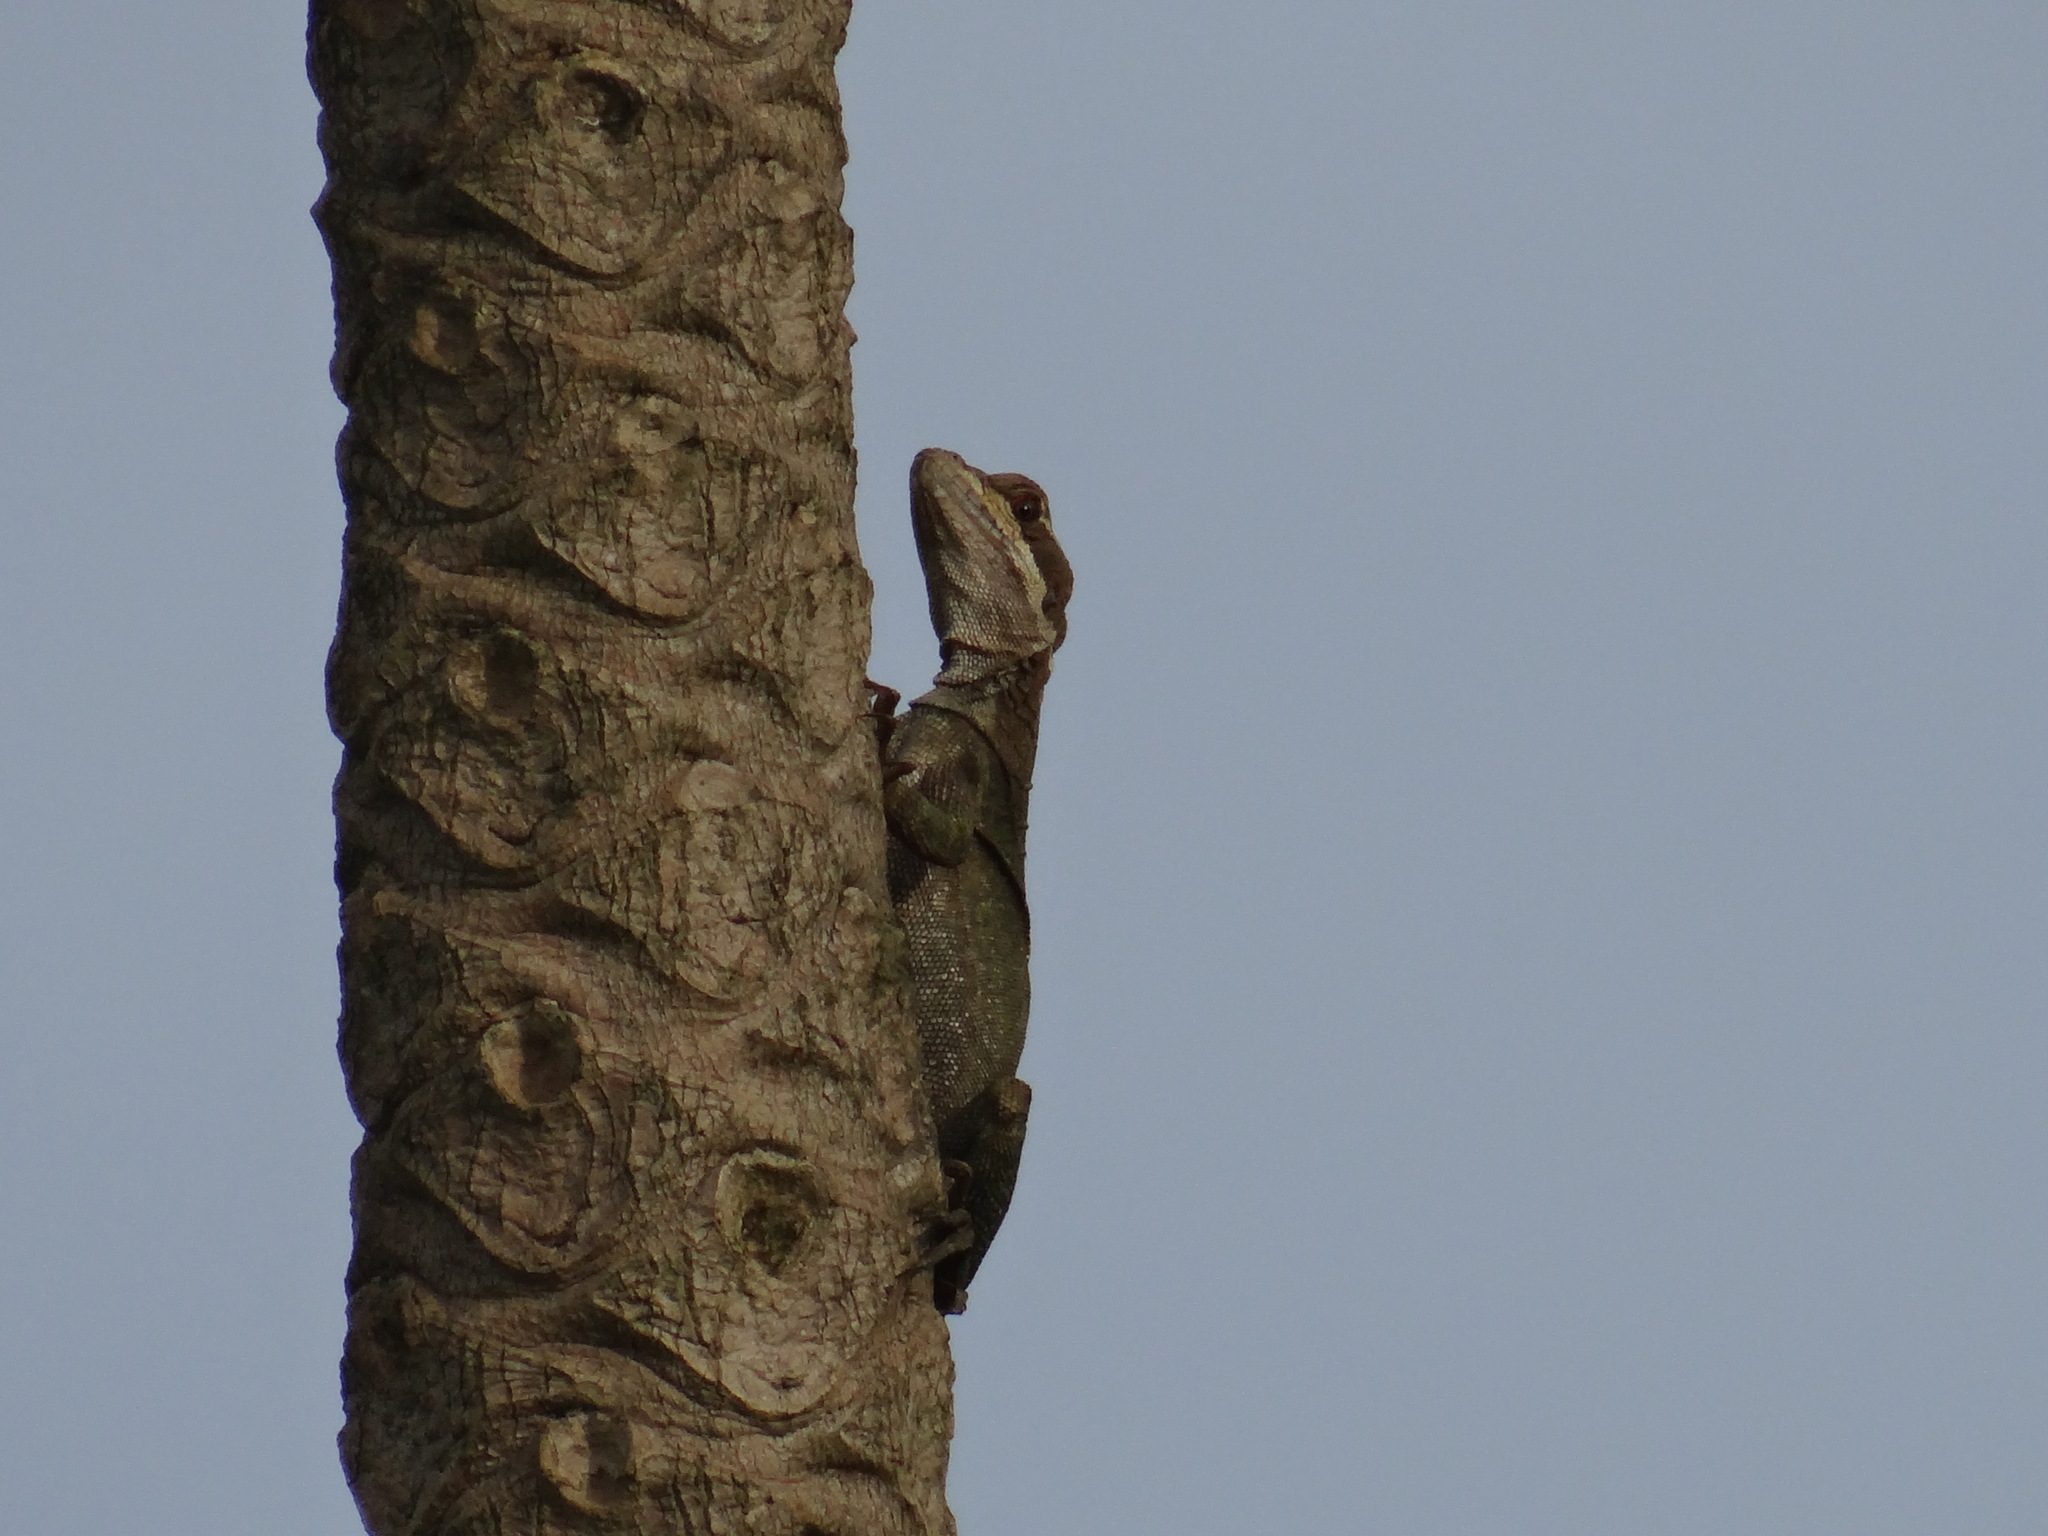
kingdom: Animalia
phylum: Chordata
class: Squamata
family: Corytophanidae
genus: Basiliscus
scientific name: Basiliscus basiliscus
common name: Common basilisk
